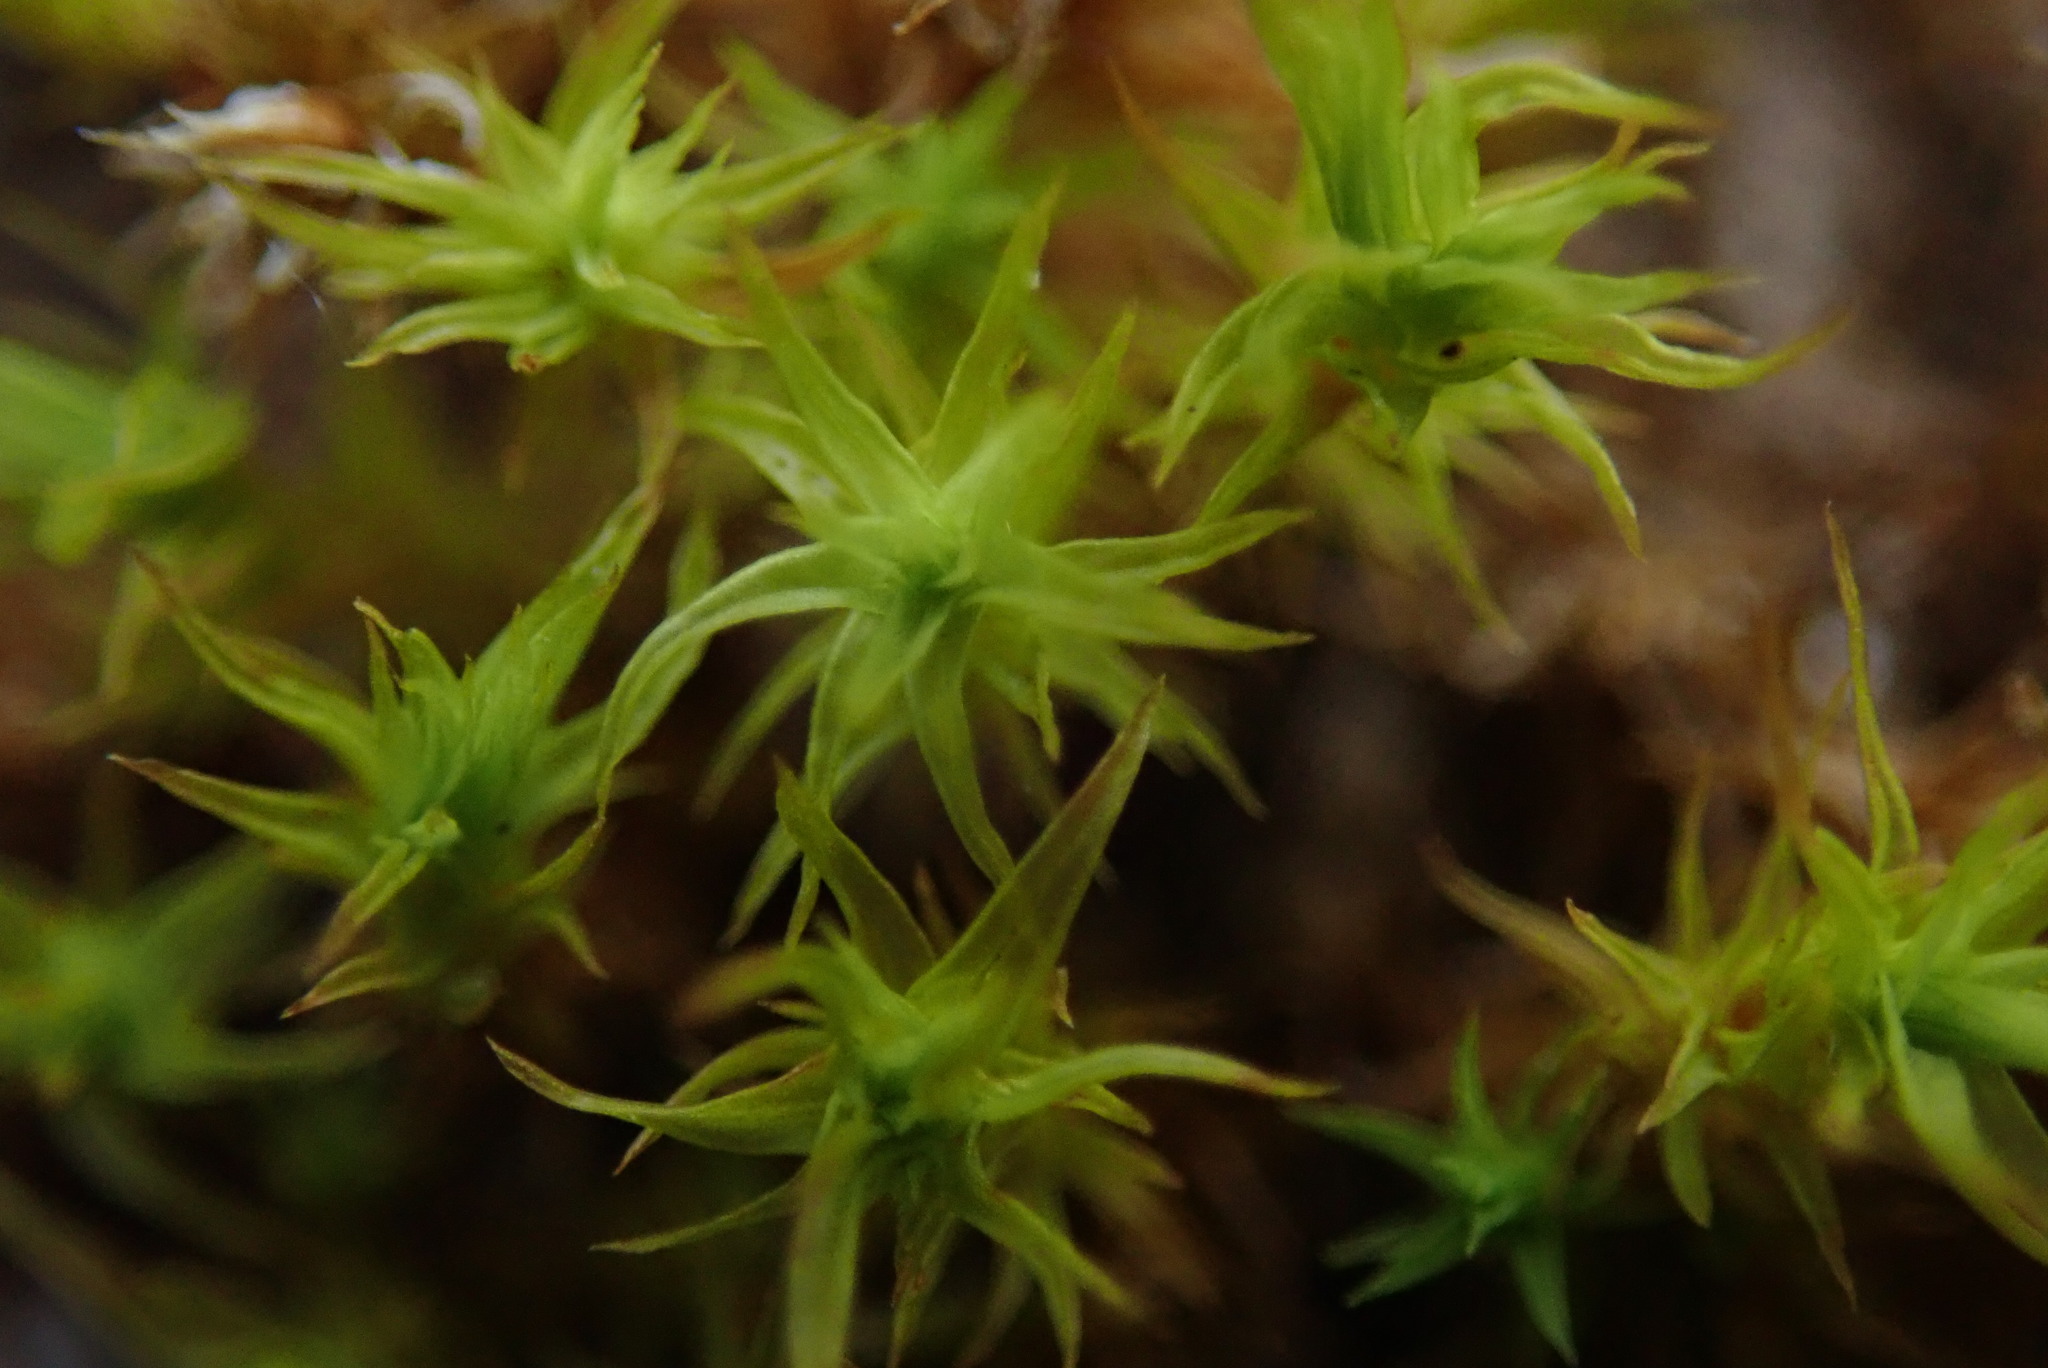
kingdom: Plantae
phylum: Bryophyta
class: Bryopsida
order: Orthotrichales
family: Orthotrichaceae
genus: Pulvigera
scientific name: Pulvigera lyellii
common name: Lyell's bristle-moss
